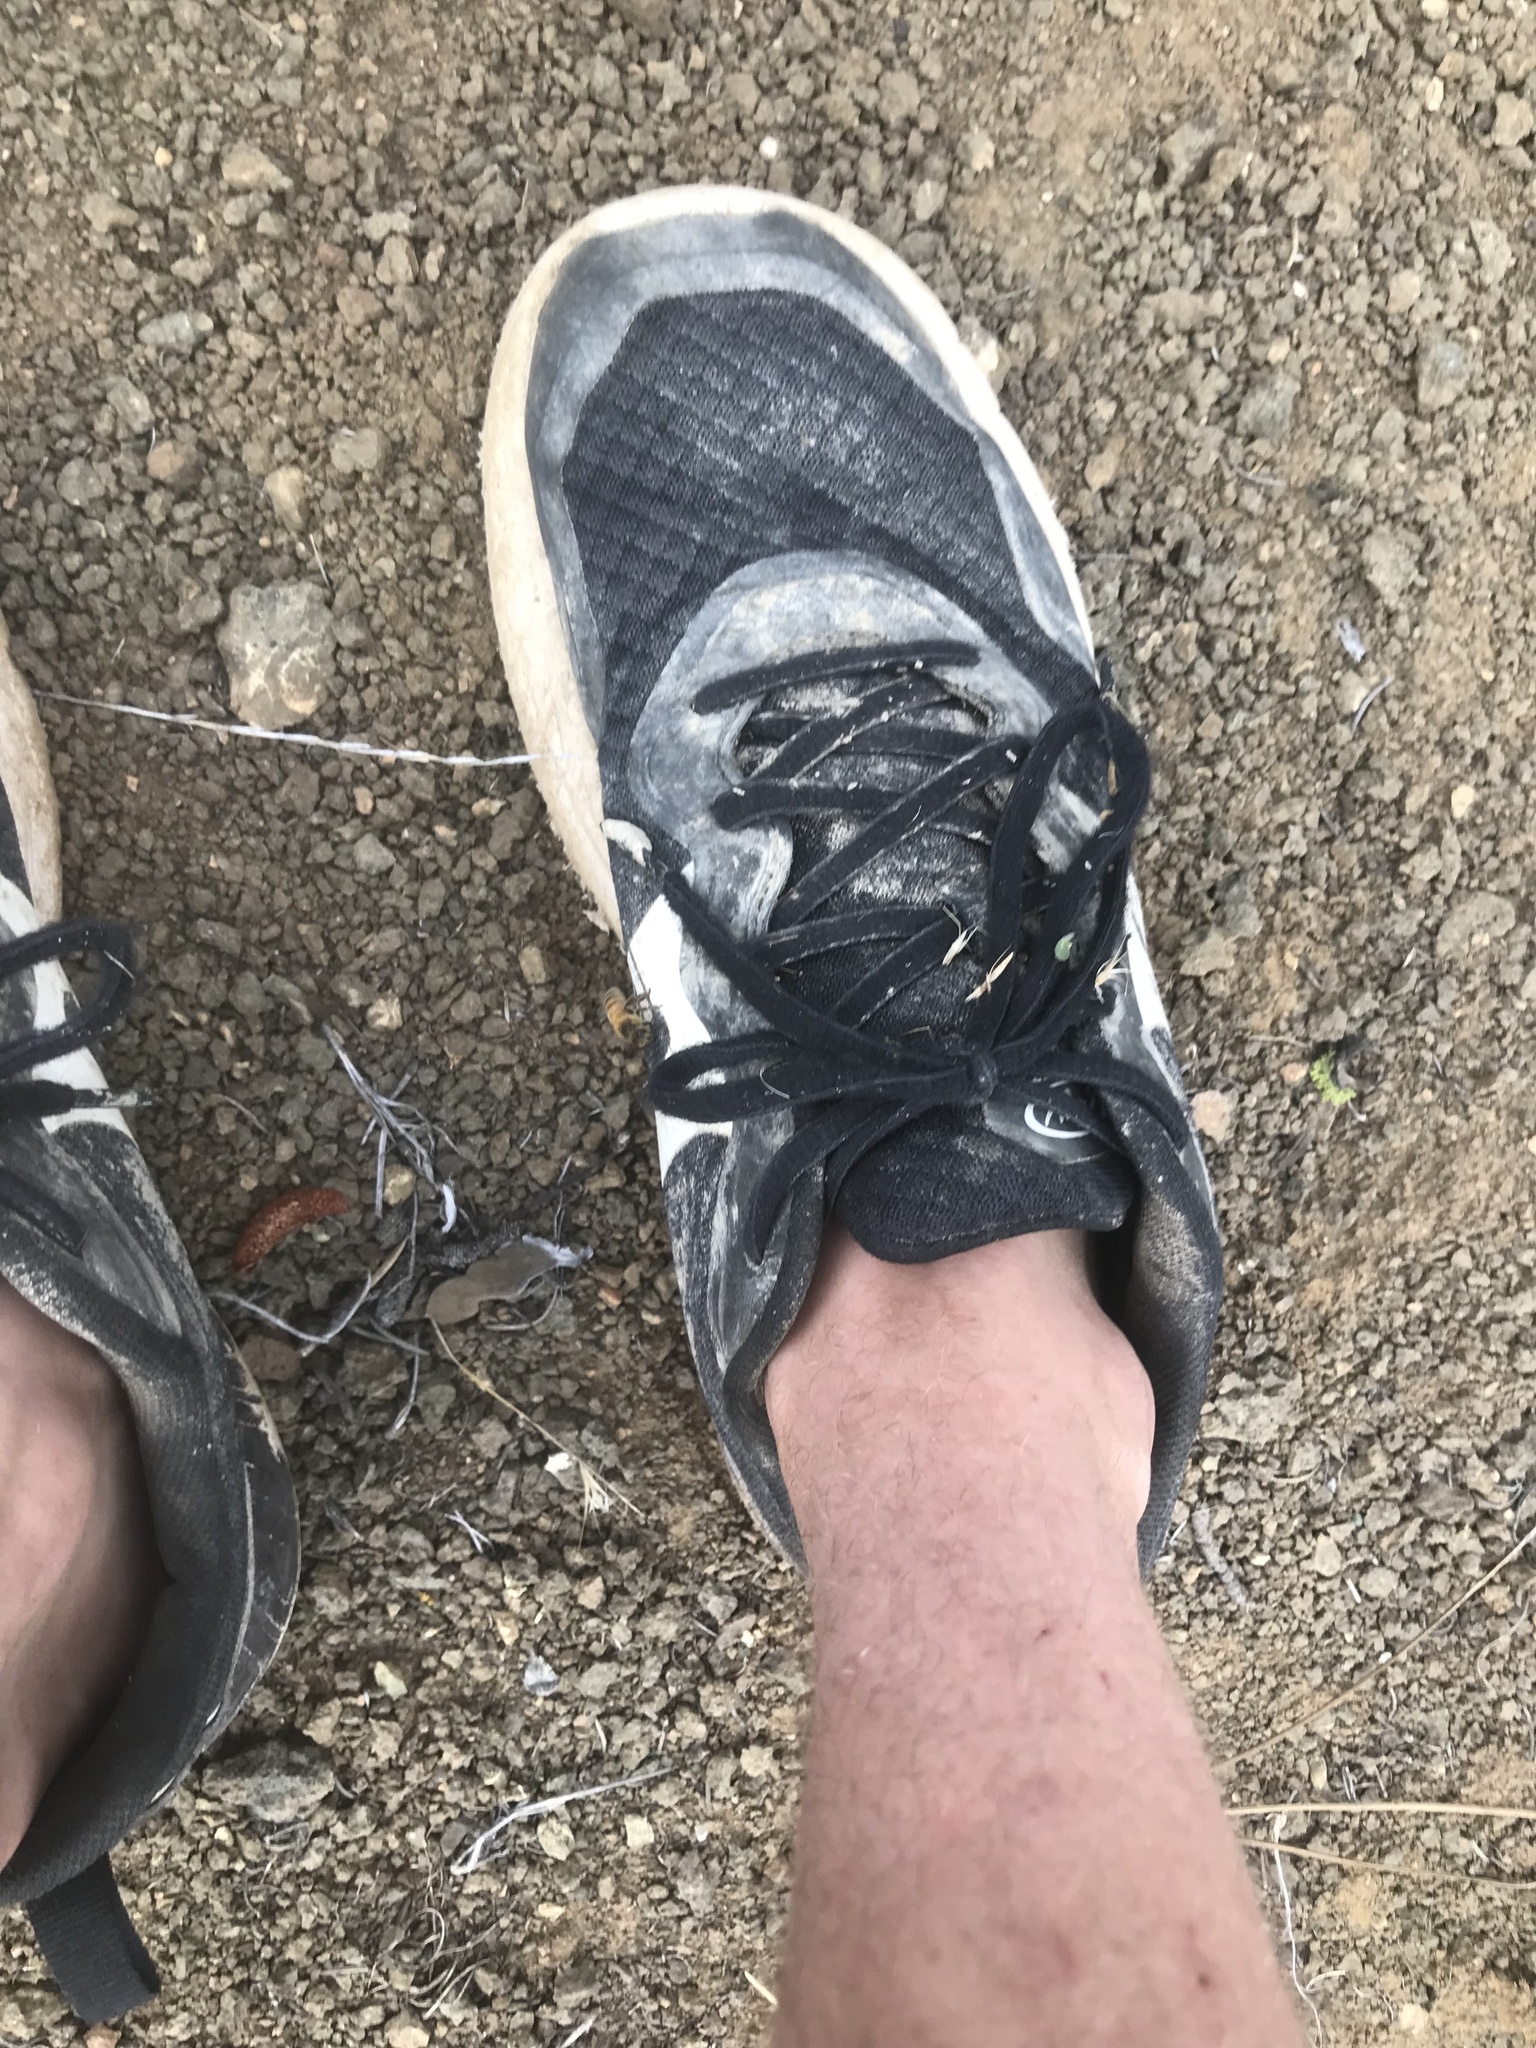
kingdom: Animalia
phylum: Arthropoda
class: Insecta
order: Hymenoptera
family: Apidae
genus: Apis
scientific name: Apis mellifera
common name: Honey bee
